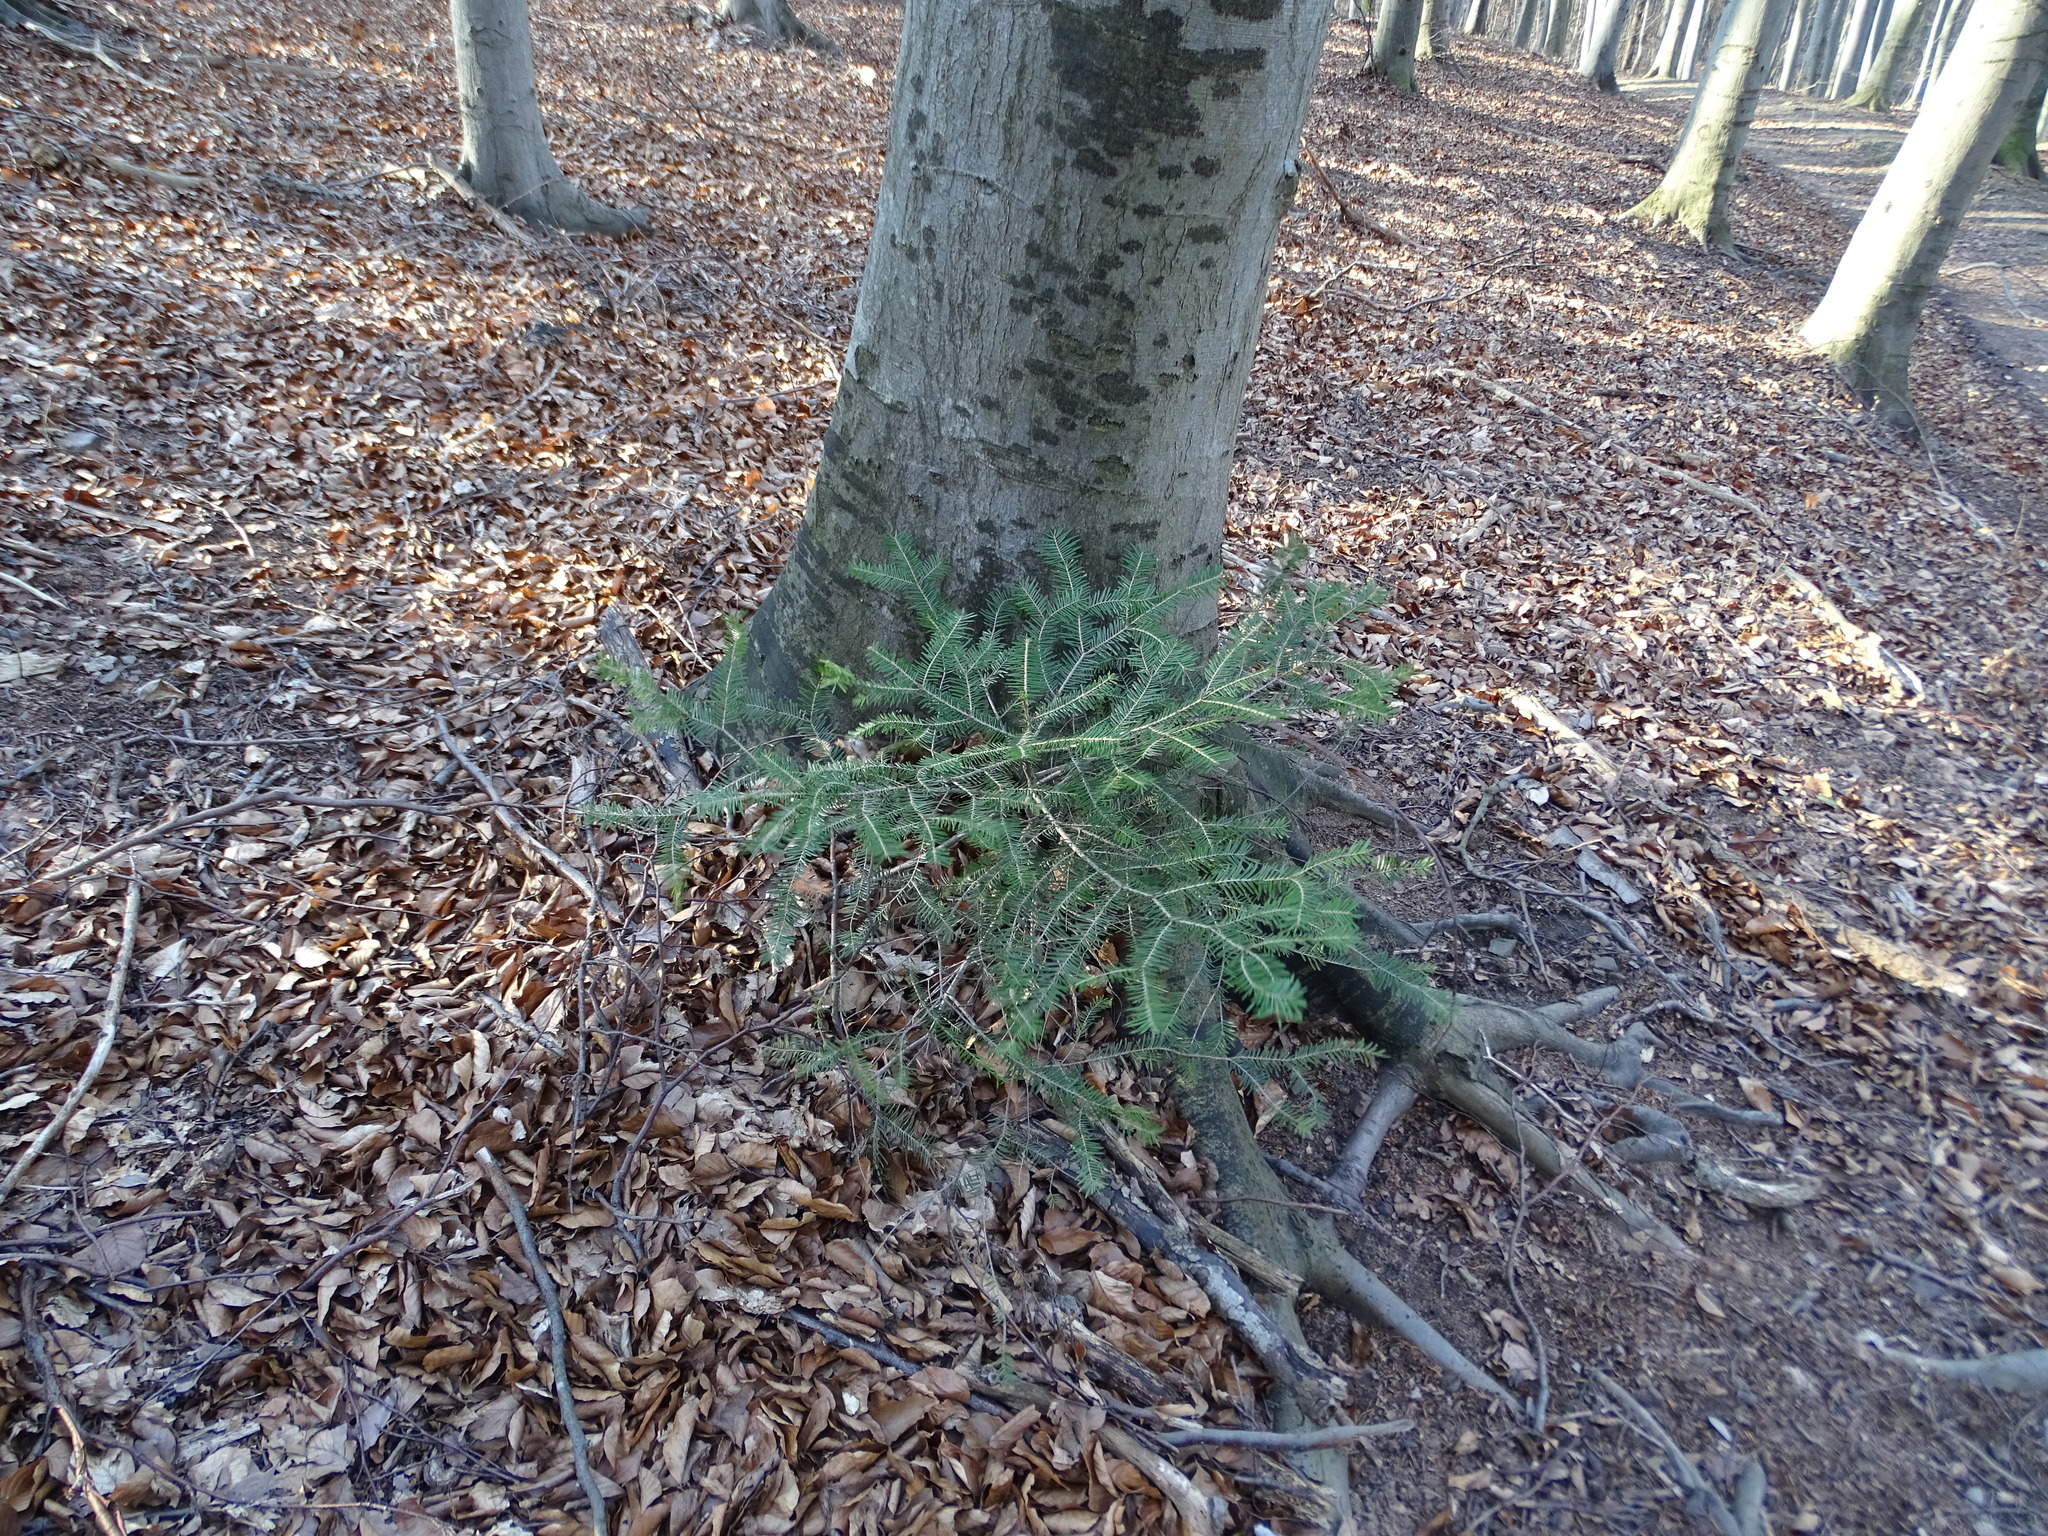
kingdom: Plantae
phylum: Tracheophyta
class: Pinopsida
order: Pinales
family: Pinaceae
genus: Abies
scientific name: Abies alba
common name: Silver fir
